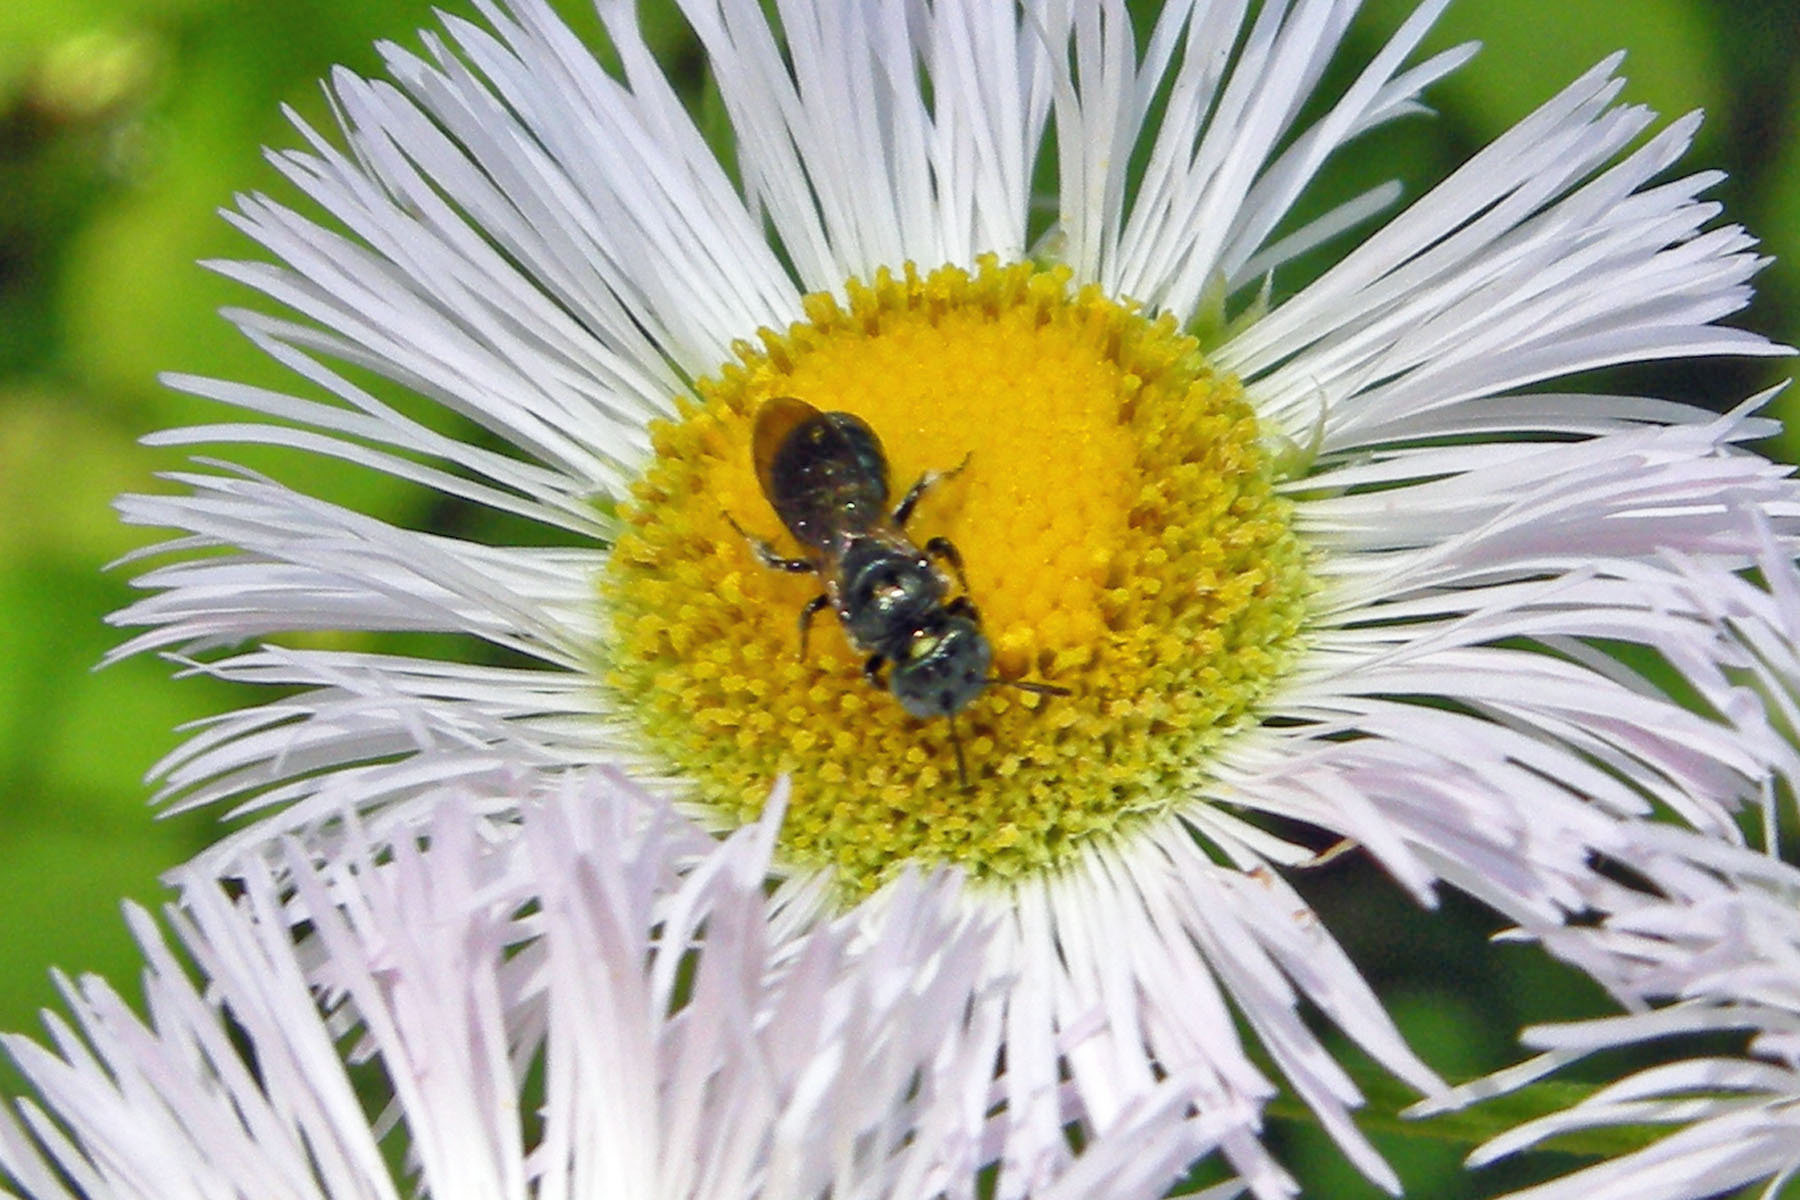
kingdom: Animalia
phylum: Arthropoda
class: Insecta
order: Hymenoptera
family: Apidae
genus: Zadontomerus
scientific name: Zadontomerus
